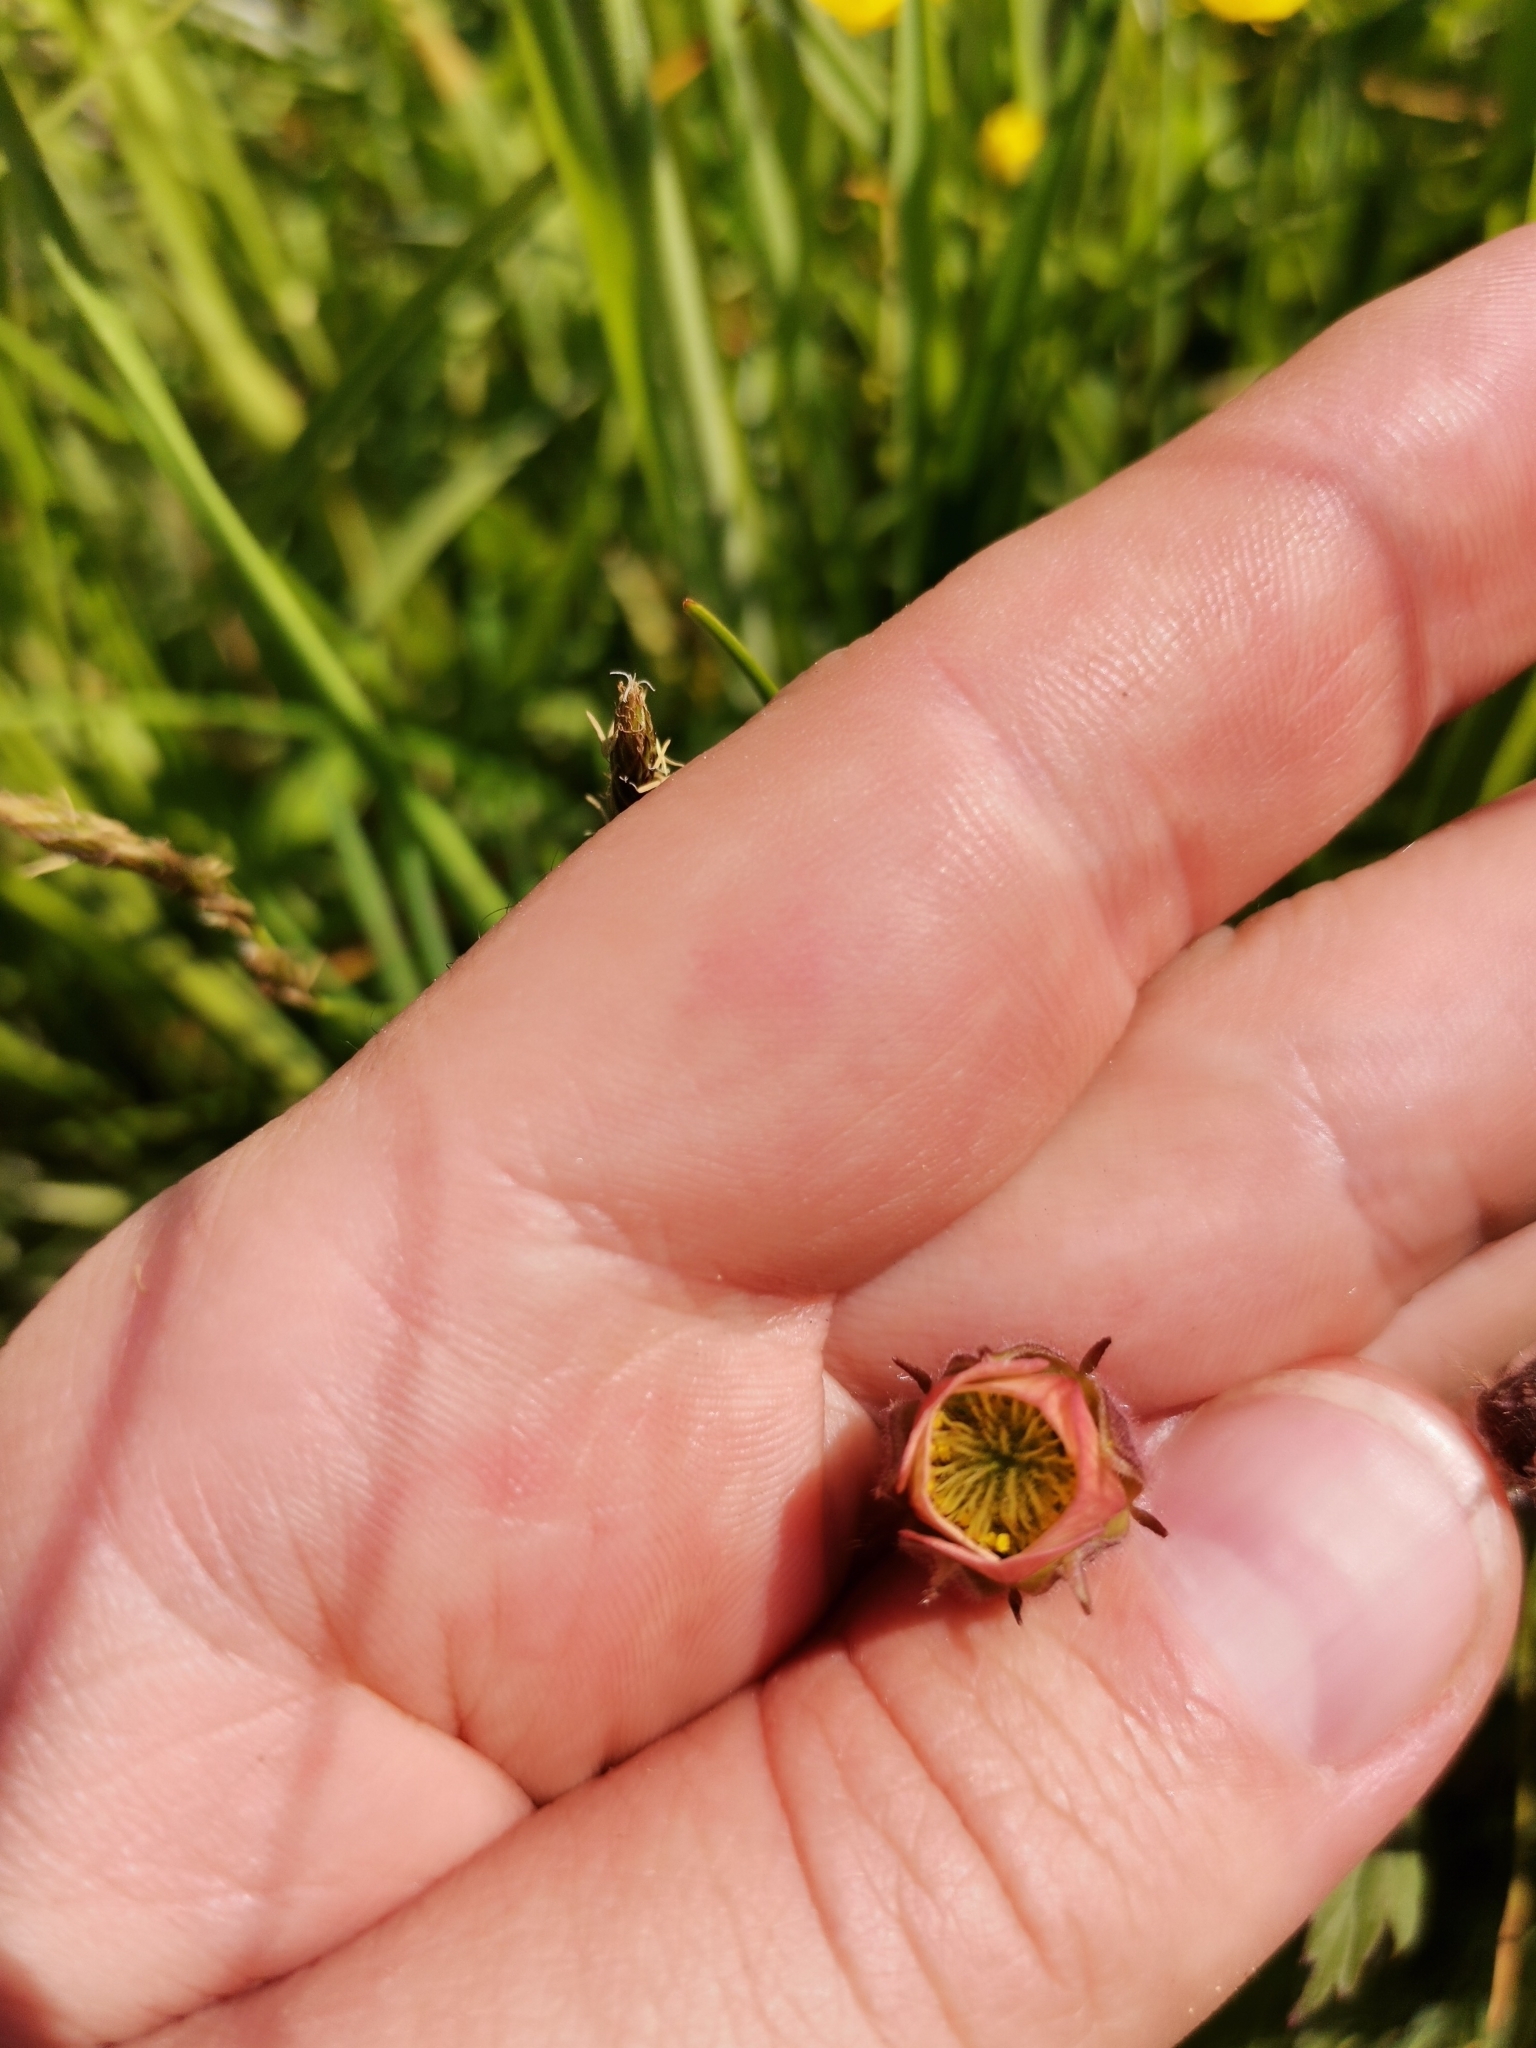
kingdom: Plantae
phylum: Tracheophyta
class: Magnoliopsida
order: Rosales
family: Rosaceae
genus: Geum
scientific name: Geum rivale
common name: Water avens
